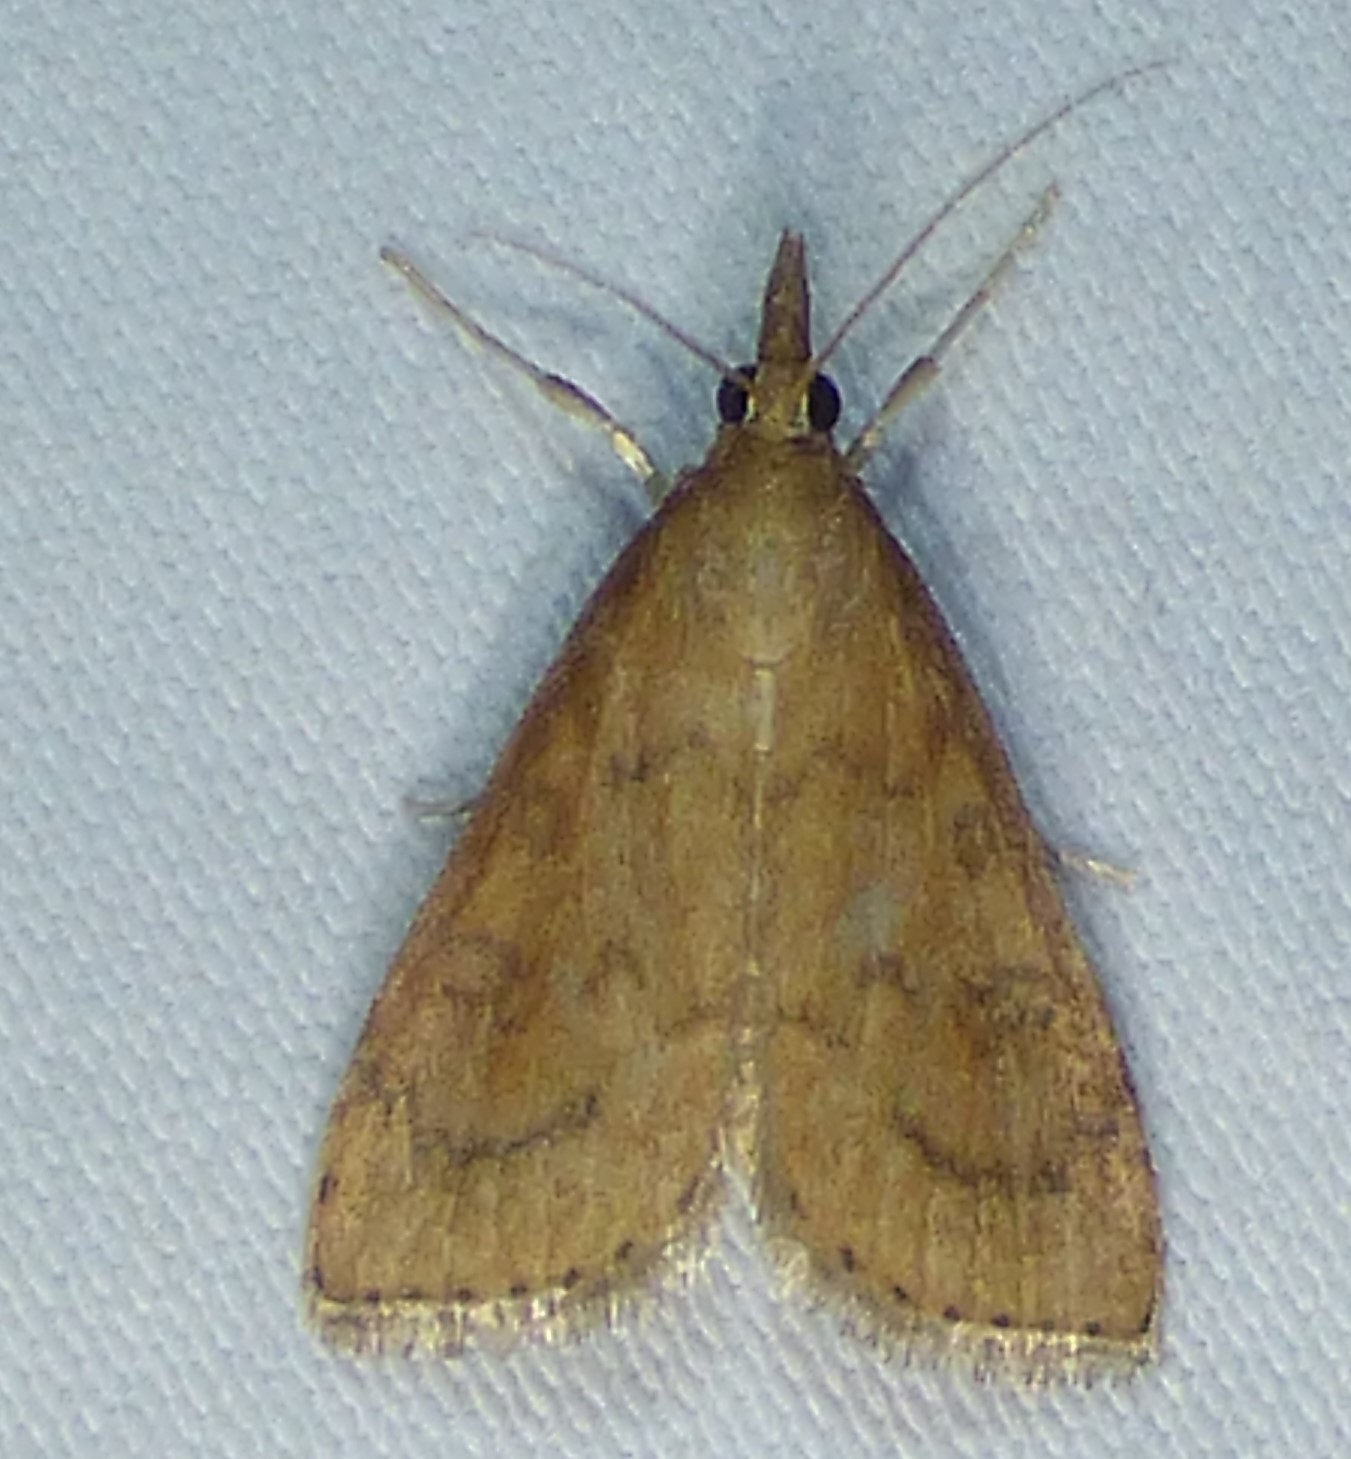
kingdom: Animalia
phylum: Arthropoda
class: Insecta
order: Lepidoptera
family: Crambidae
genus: Udea
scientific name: Udea rubigalis
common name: Celery leaftier moth
